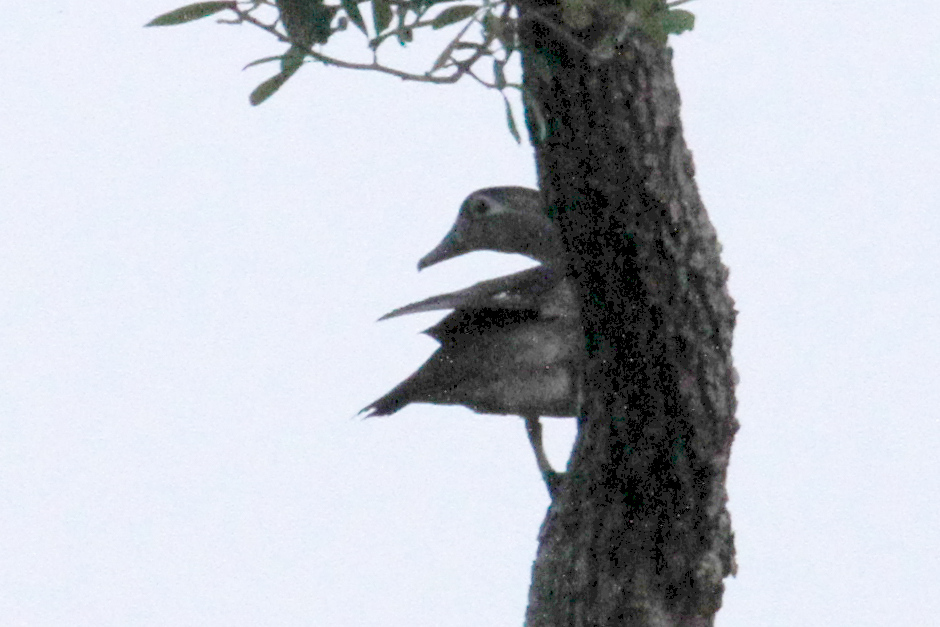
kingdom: Animalia
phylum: Chordata
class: Aves
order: Anseriformes
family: Anatidae
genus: Aix
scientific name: Aix sponsa
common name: Wood duck
